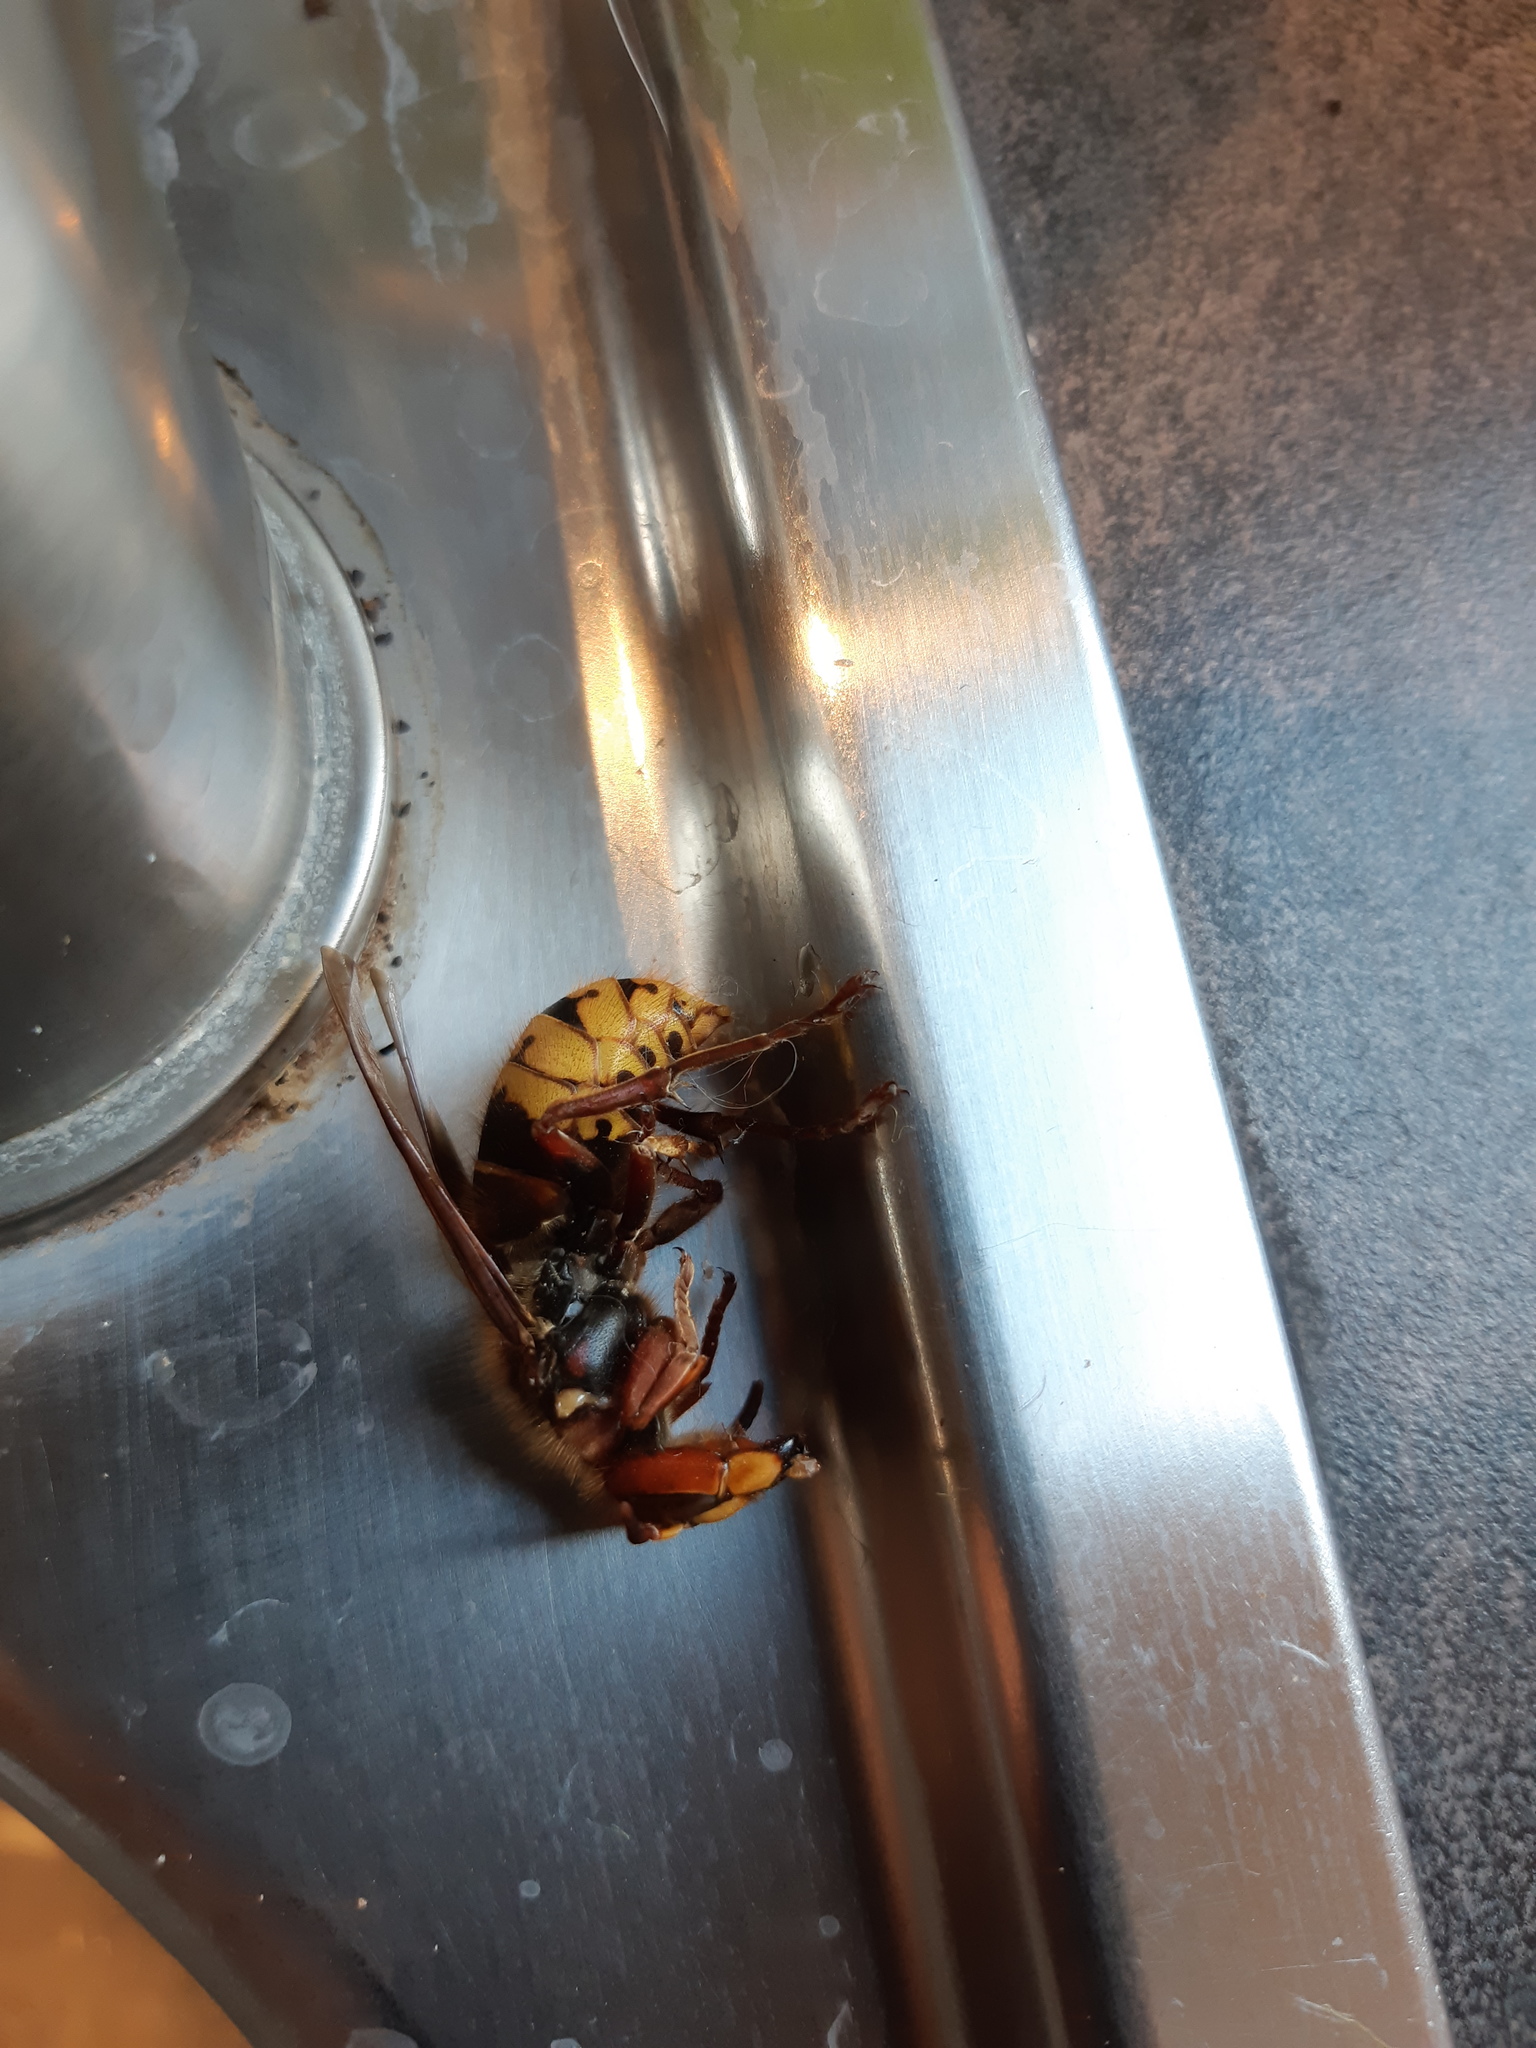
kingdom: Animalia
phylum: Arthropoda
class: Insecta
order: Hymenoptera
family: Vespidae
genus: Vespa
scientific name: Vespa crabro
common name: Hornet
